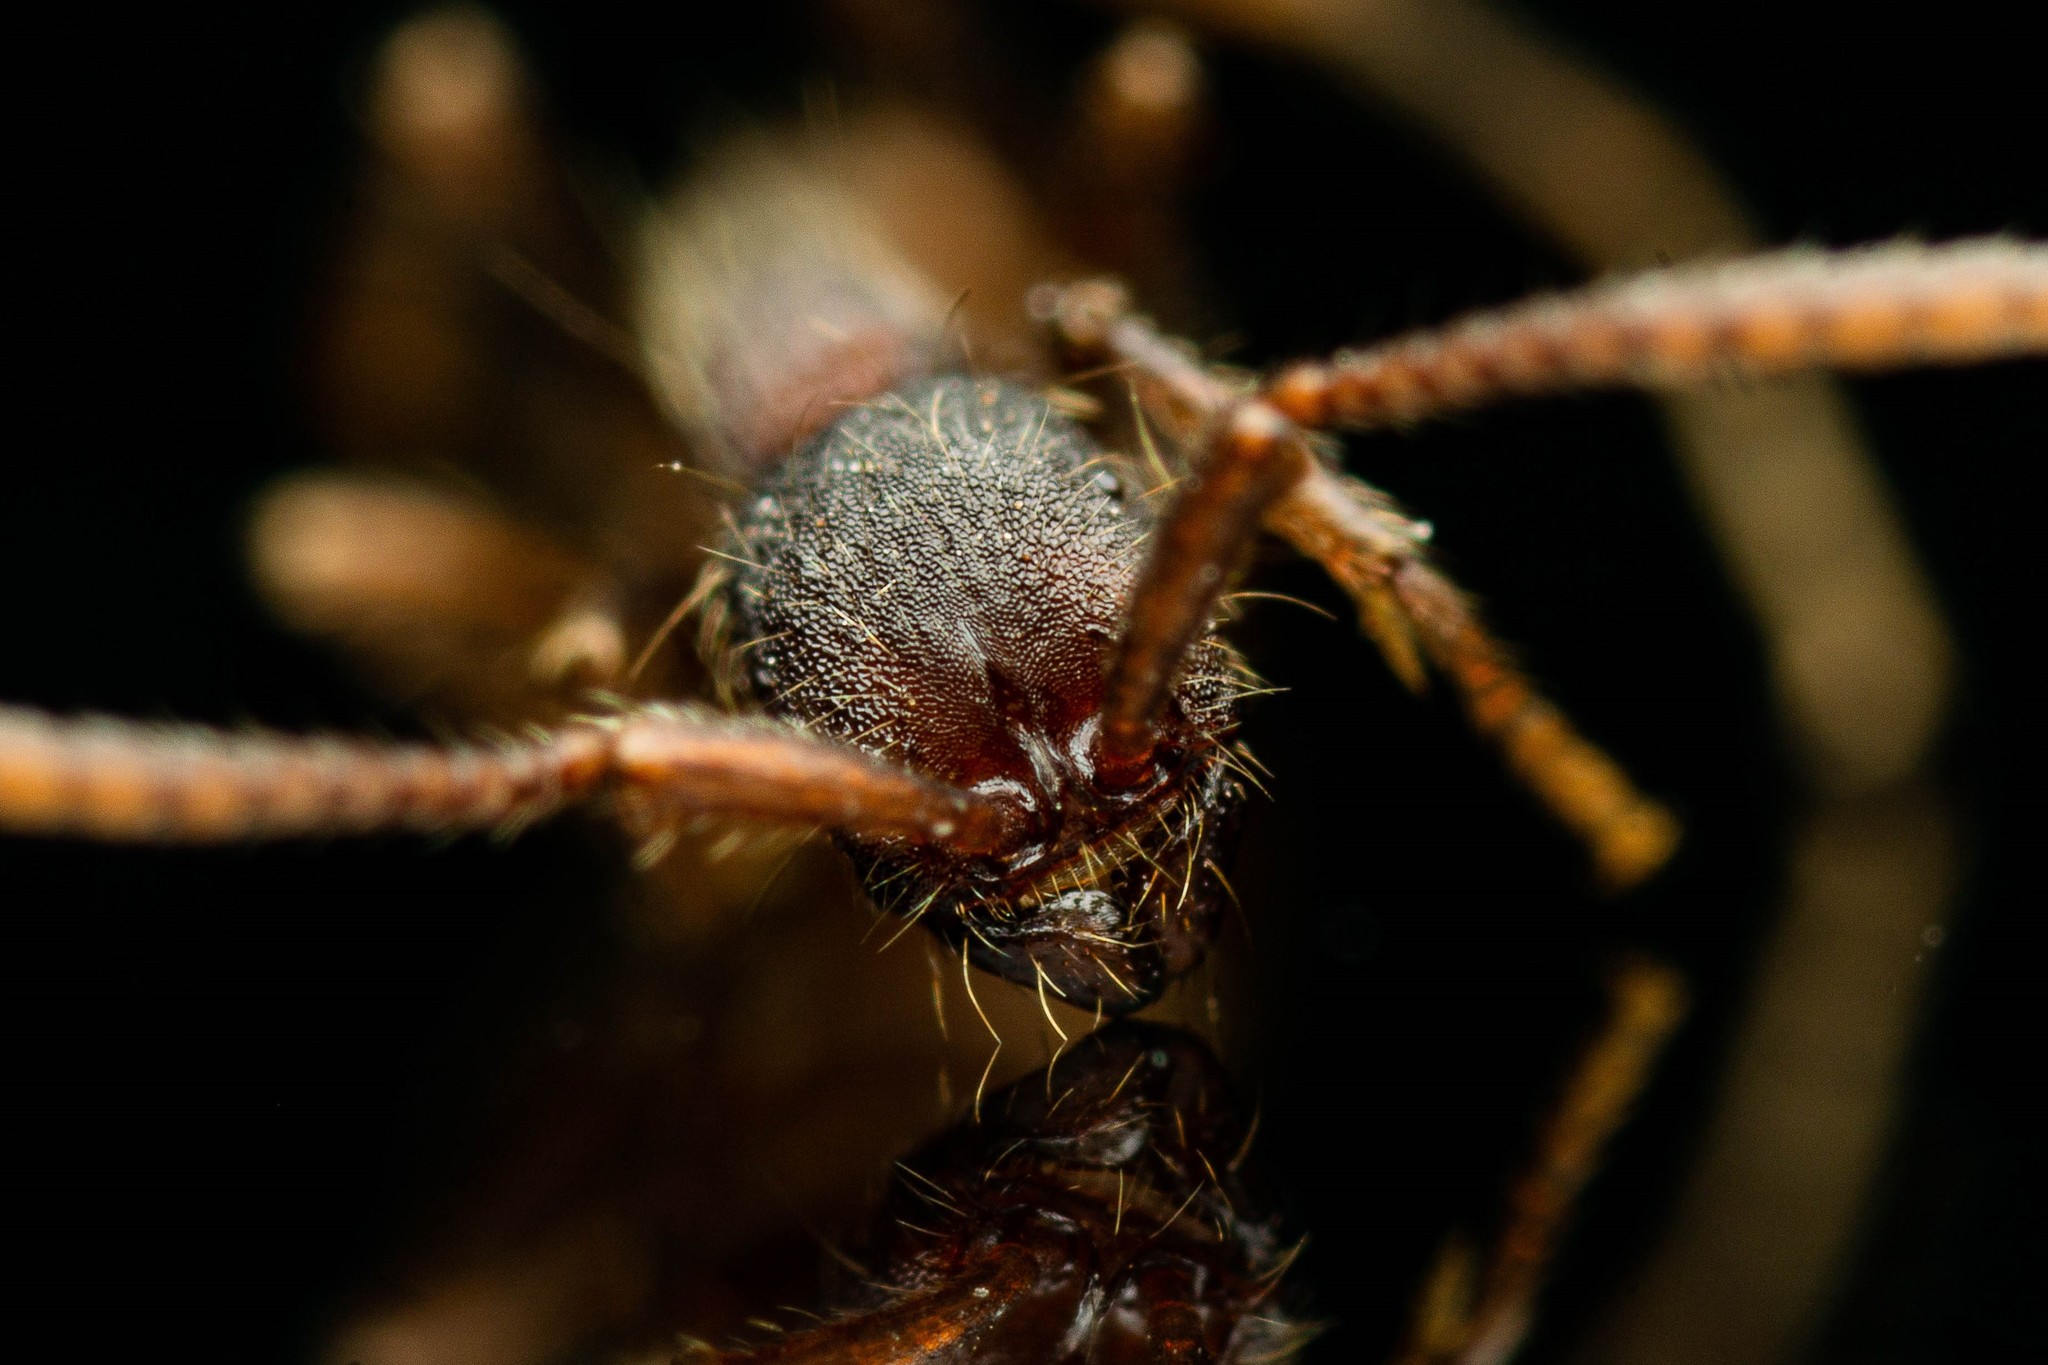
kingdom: Animalia
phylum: Arthropoda
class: Insecta
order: Hymenoptera
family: Formicidae
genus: Neivamyrmex
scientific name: Neivamyrmex nigrescens
